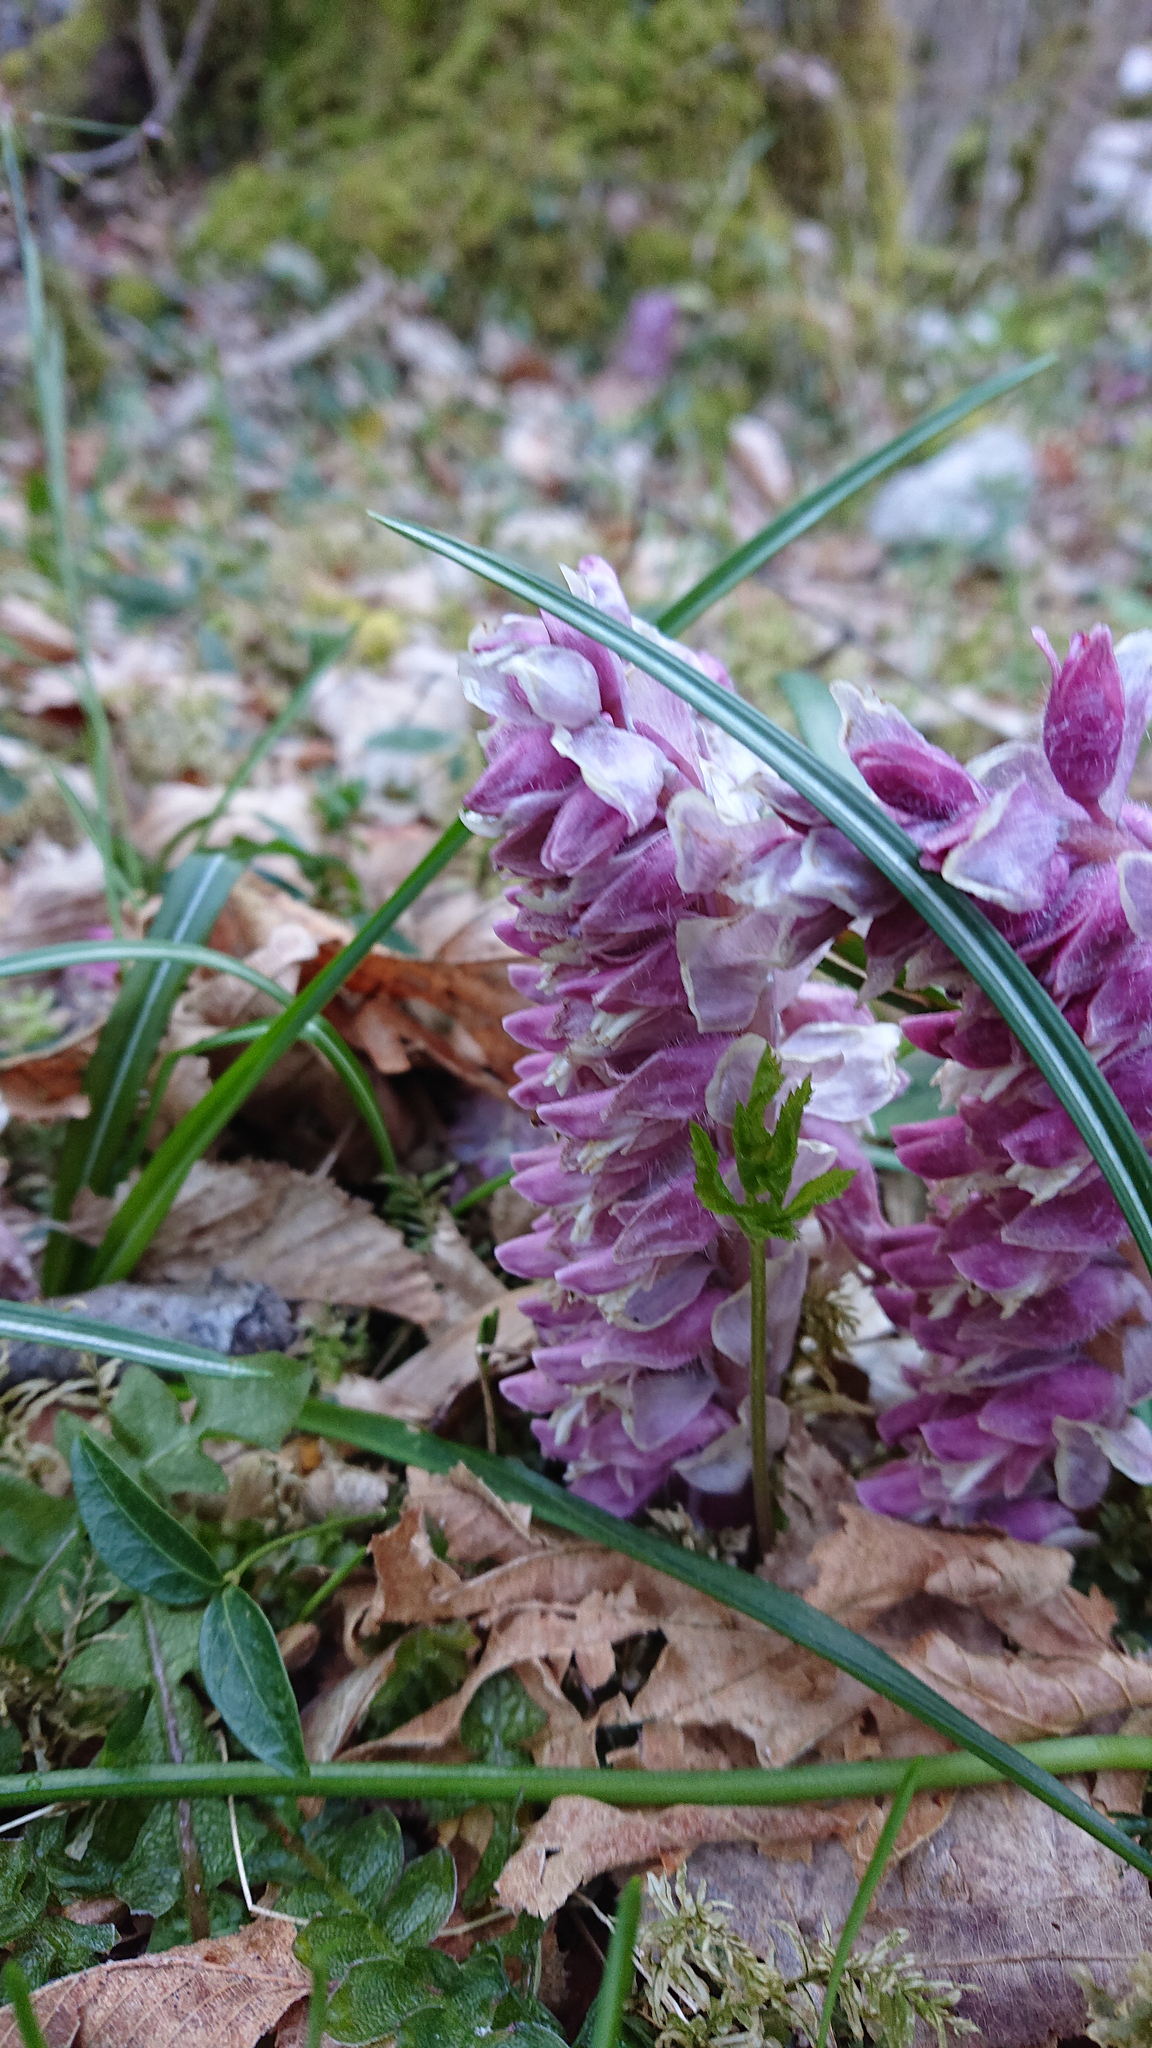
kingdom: Plantae
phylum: Tracheophyta
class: Magnoliopsida
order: Lamiales
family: Orobanchaceae
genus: Lathraea
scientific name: Lathraea squamaria
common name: Toothwort
